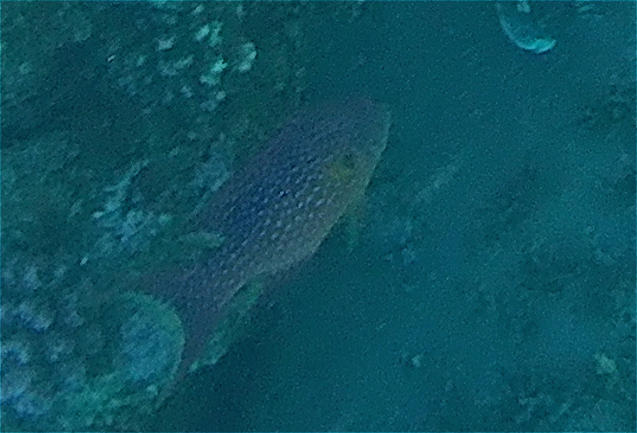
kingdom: Animalia
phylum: Chordata
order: Perciformes
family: Serranidae
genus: Variola
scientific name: Variola louti
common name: Yellow-edged lyretail
